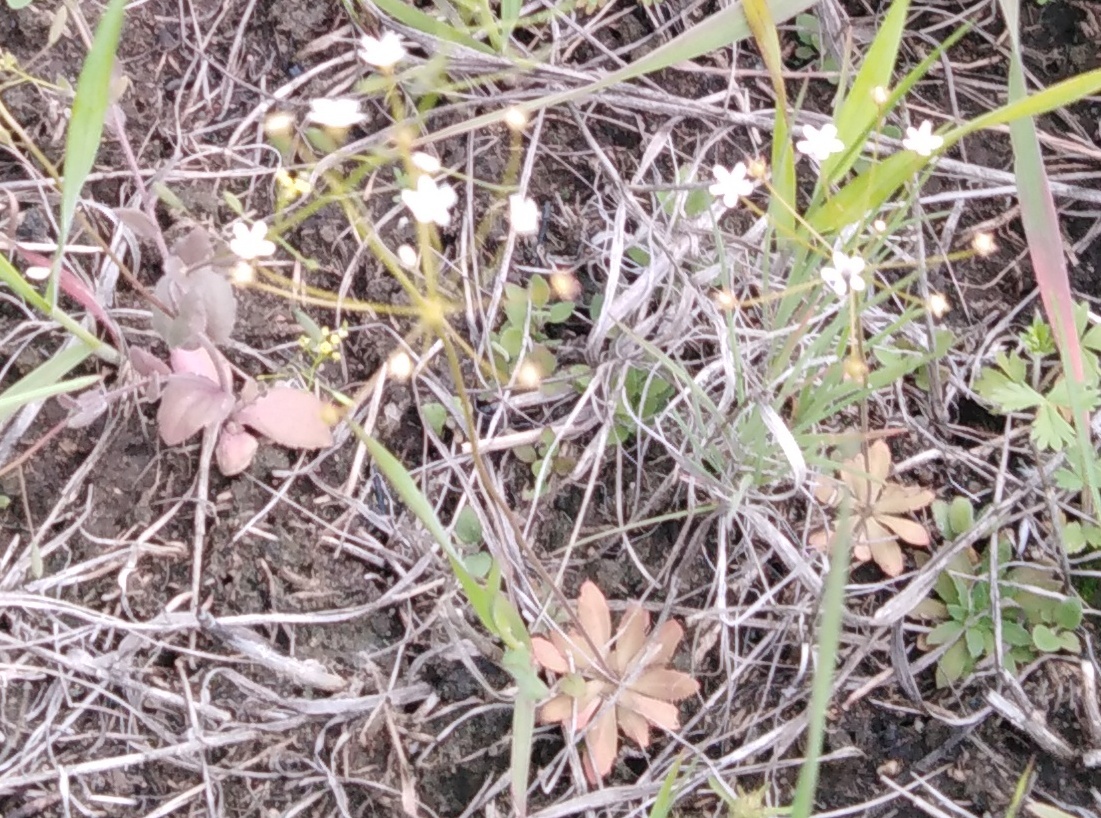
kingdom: Plantae
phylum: Tracheophyta
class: Magnoliopsida
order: Ericales
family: Primulaceae
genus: Androsace
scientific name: Androsace septentrionalis
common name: Hairy northern fairy-candelabra
